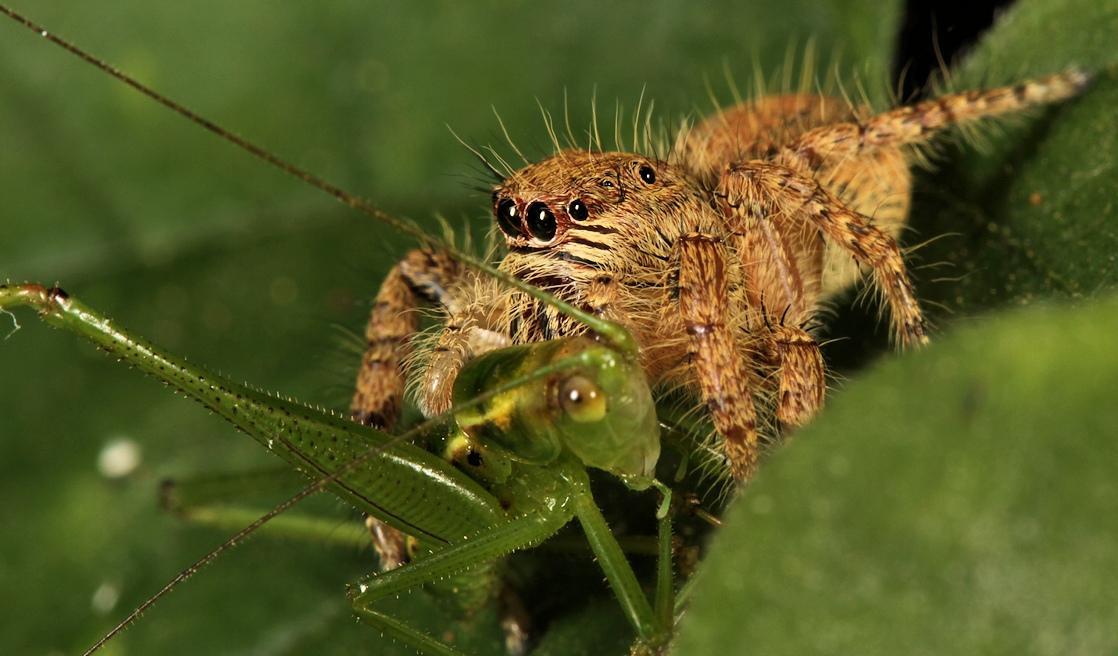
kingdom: Animalia
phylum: Arthropoda
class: Arachnida
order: Araneae
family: Salticidae
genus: Hyllus
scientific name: Hyllus treleaveni
